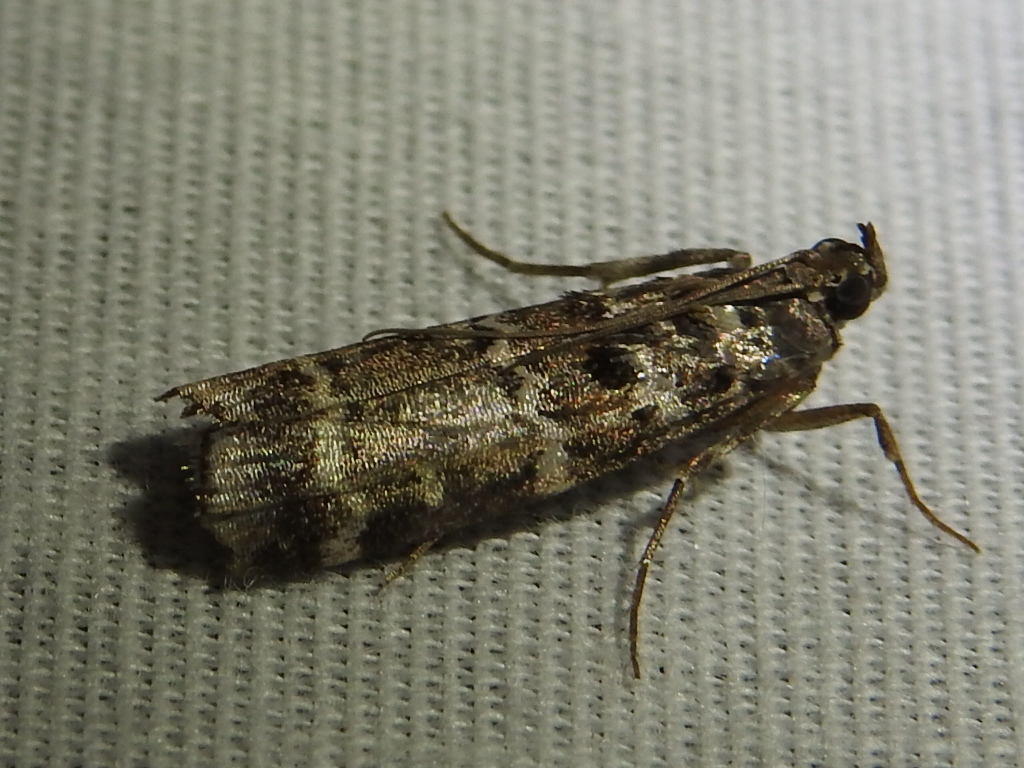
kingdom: Animalia
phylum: Arthropoda
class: Insecta
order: Lepidoptera
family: Pyralidae
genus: Dioryctria
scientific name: Dioryctria amatella
